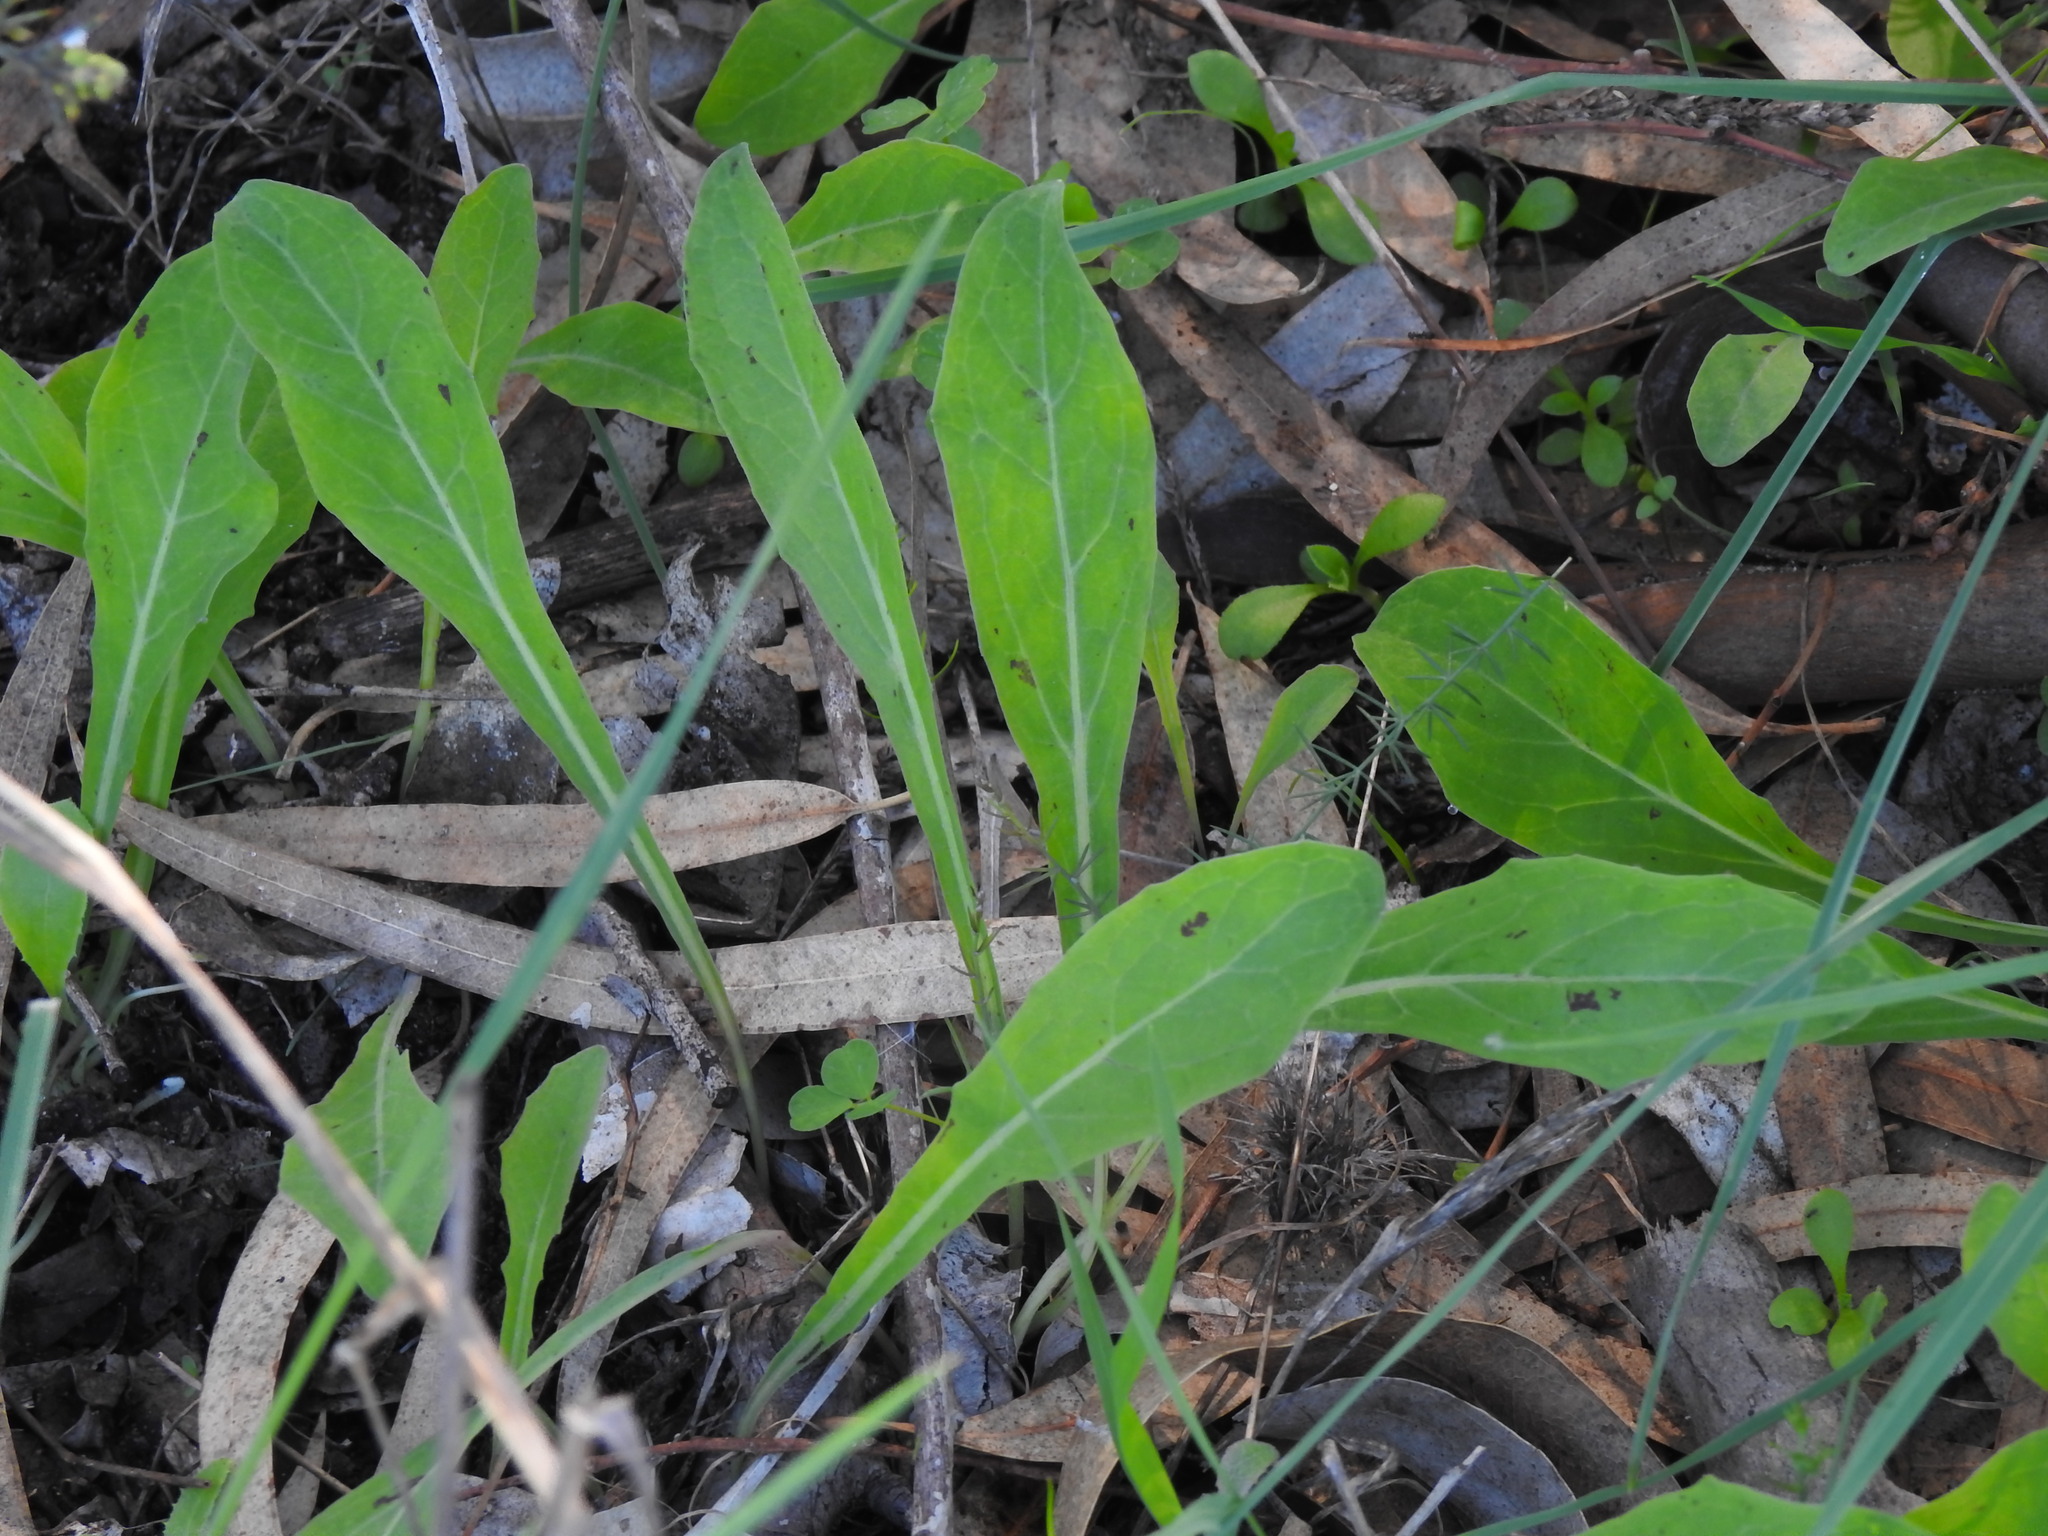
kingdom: Plantae
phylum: Tracheophyta
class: Magnoliopsida
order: Asterales
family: Asteraceae
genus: Aetheorhiza
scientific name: Aetheorhiza bulbosa
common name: Tuberous hawk's-beard
